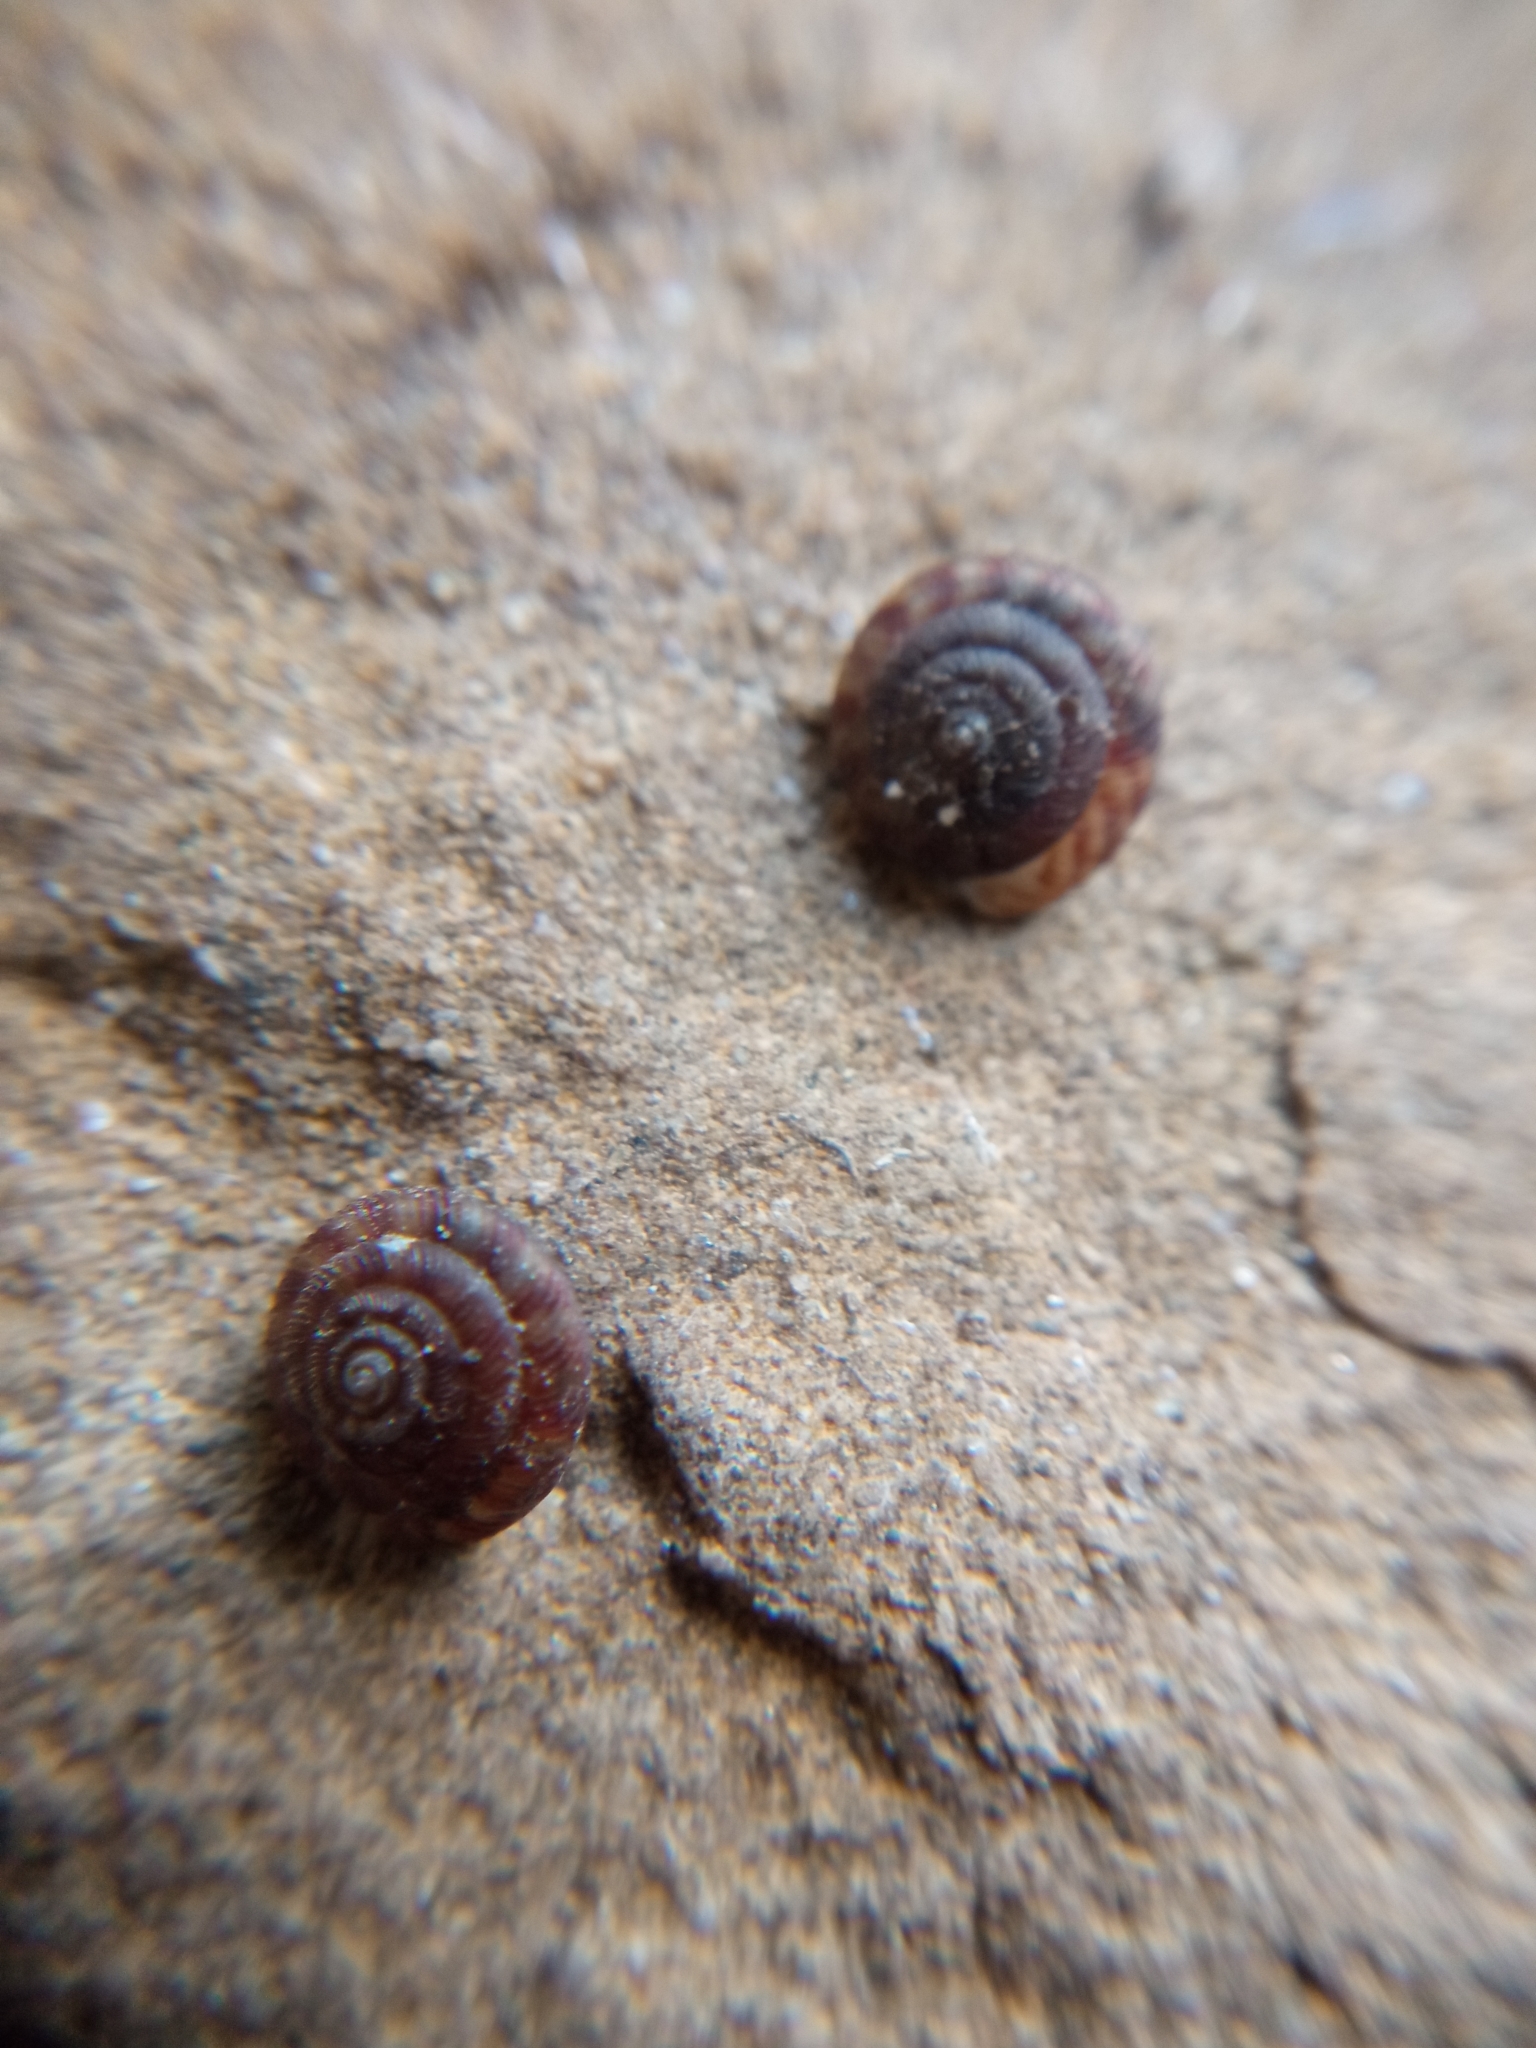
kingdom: Animalia
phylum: Mollusca
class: Gastropoda
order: Stylommatophora
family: Discidae
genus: Discus
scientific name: Discus rotundatus
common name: Rounded snail
